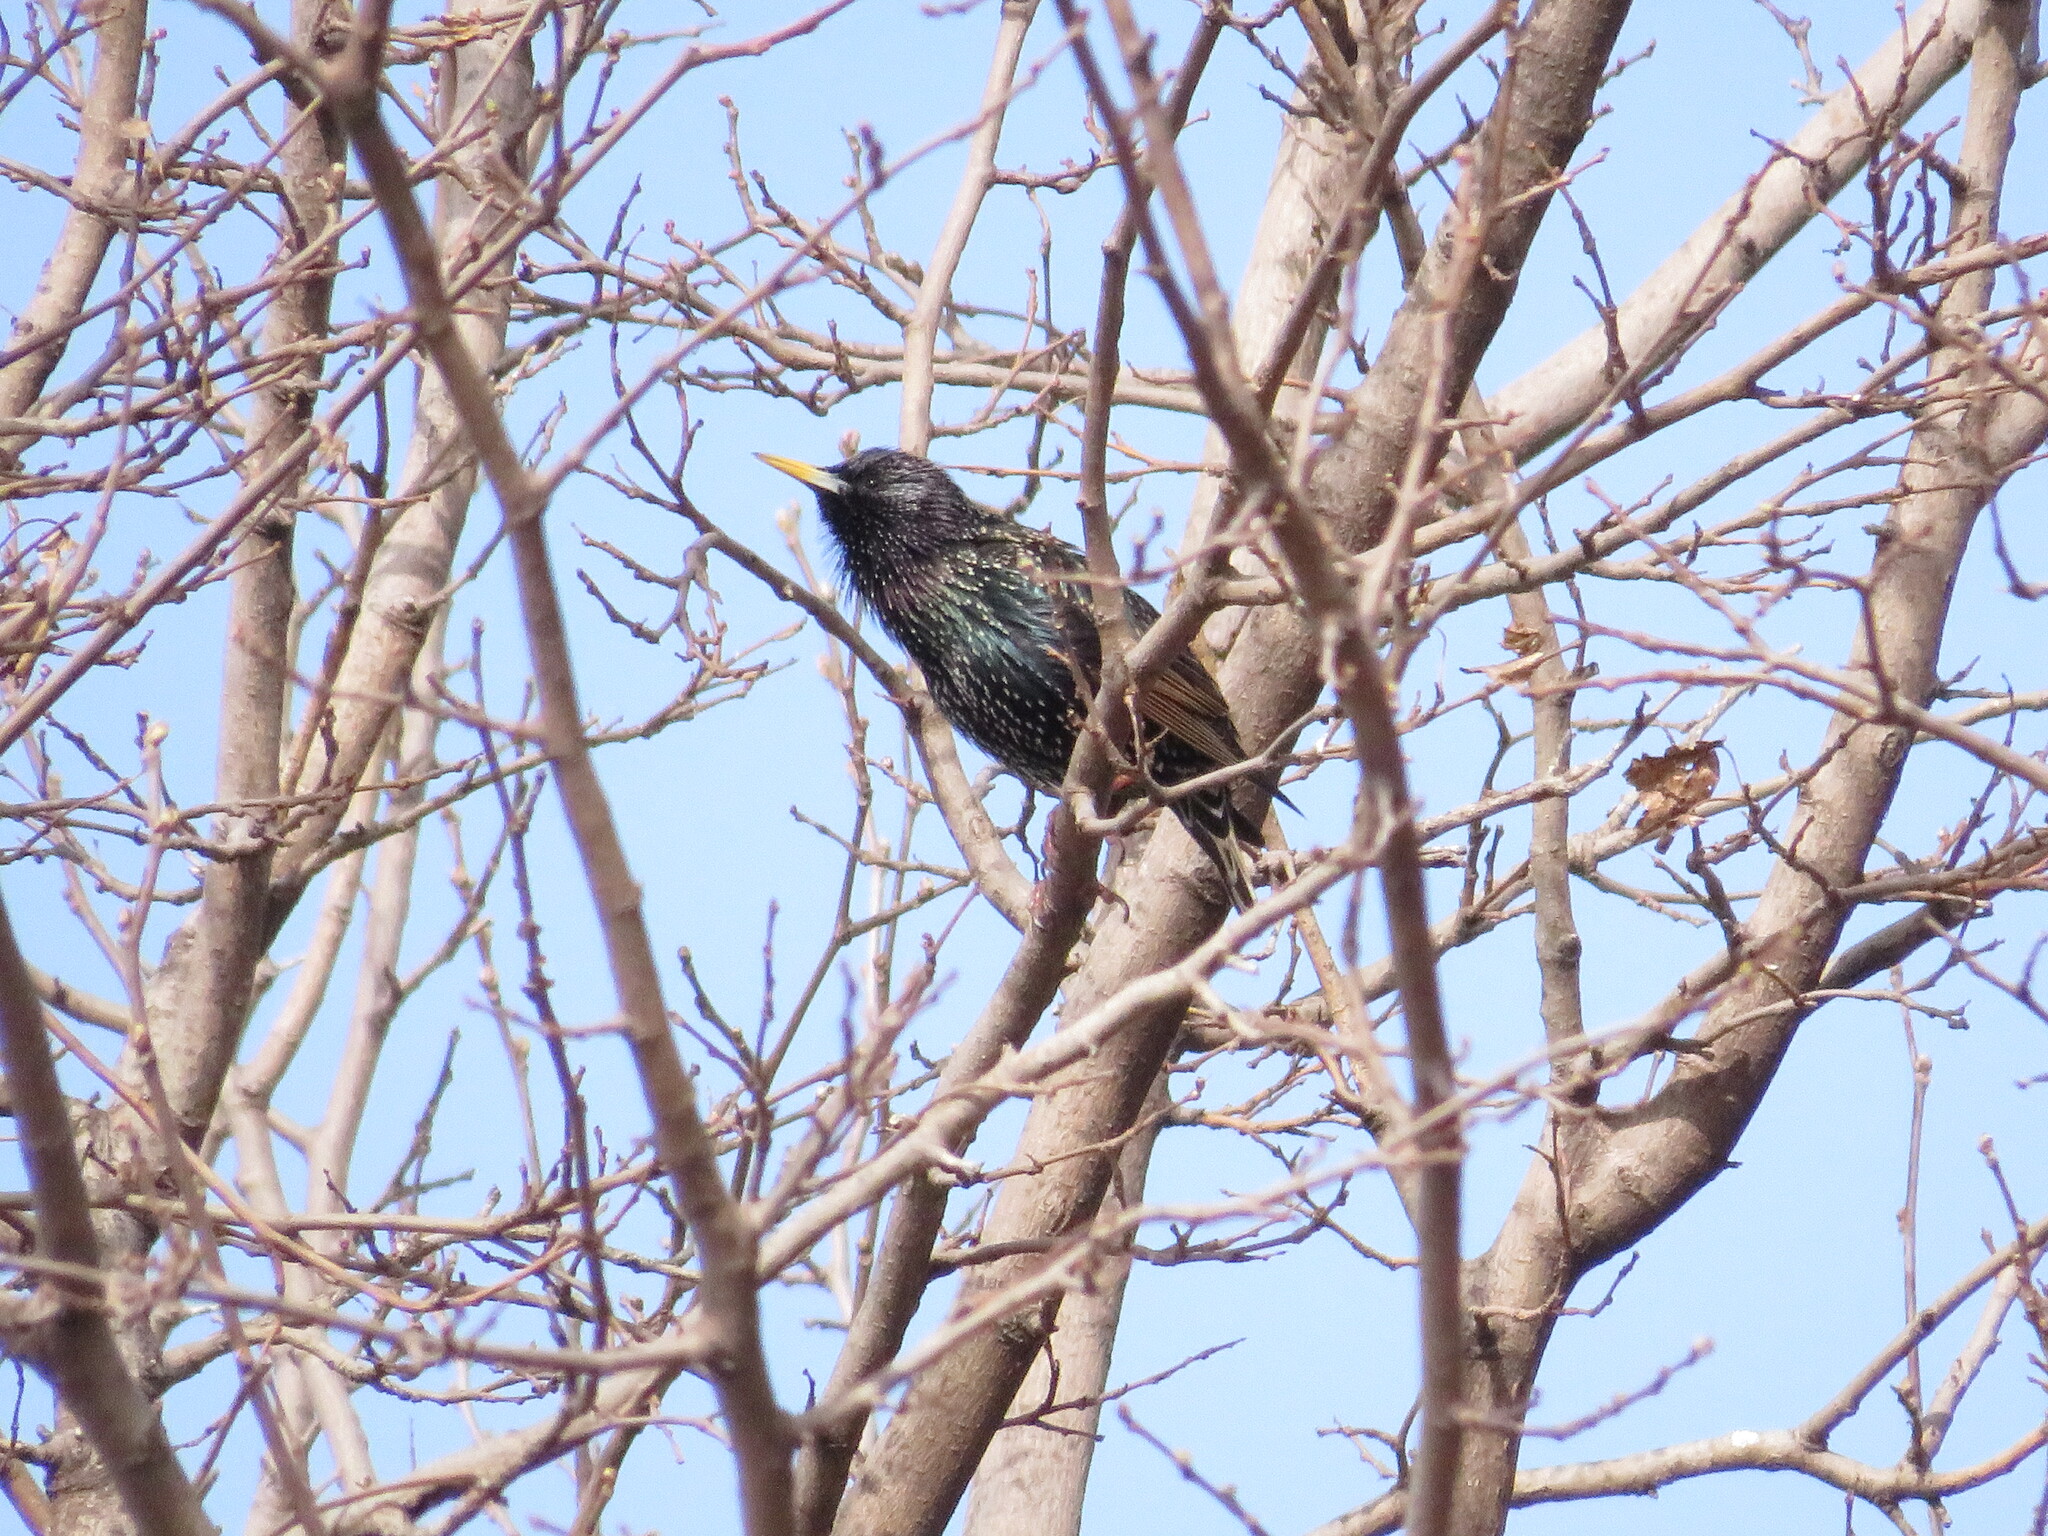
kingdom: Animalia
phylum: Chordata
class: Aves
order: Passeriformes
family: Sturnidae
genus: Sturnus
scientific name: Sturnus vulgaris
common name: Common starling
